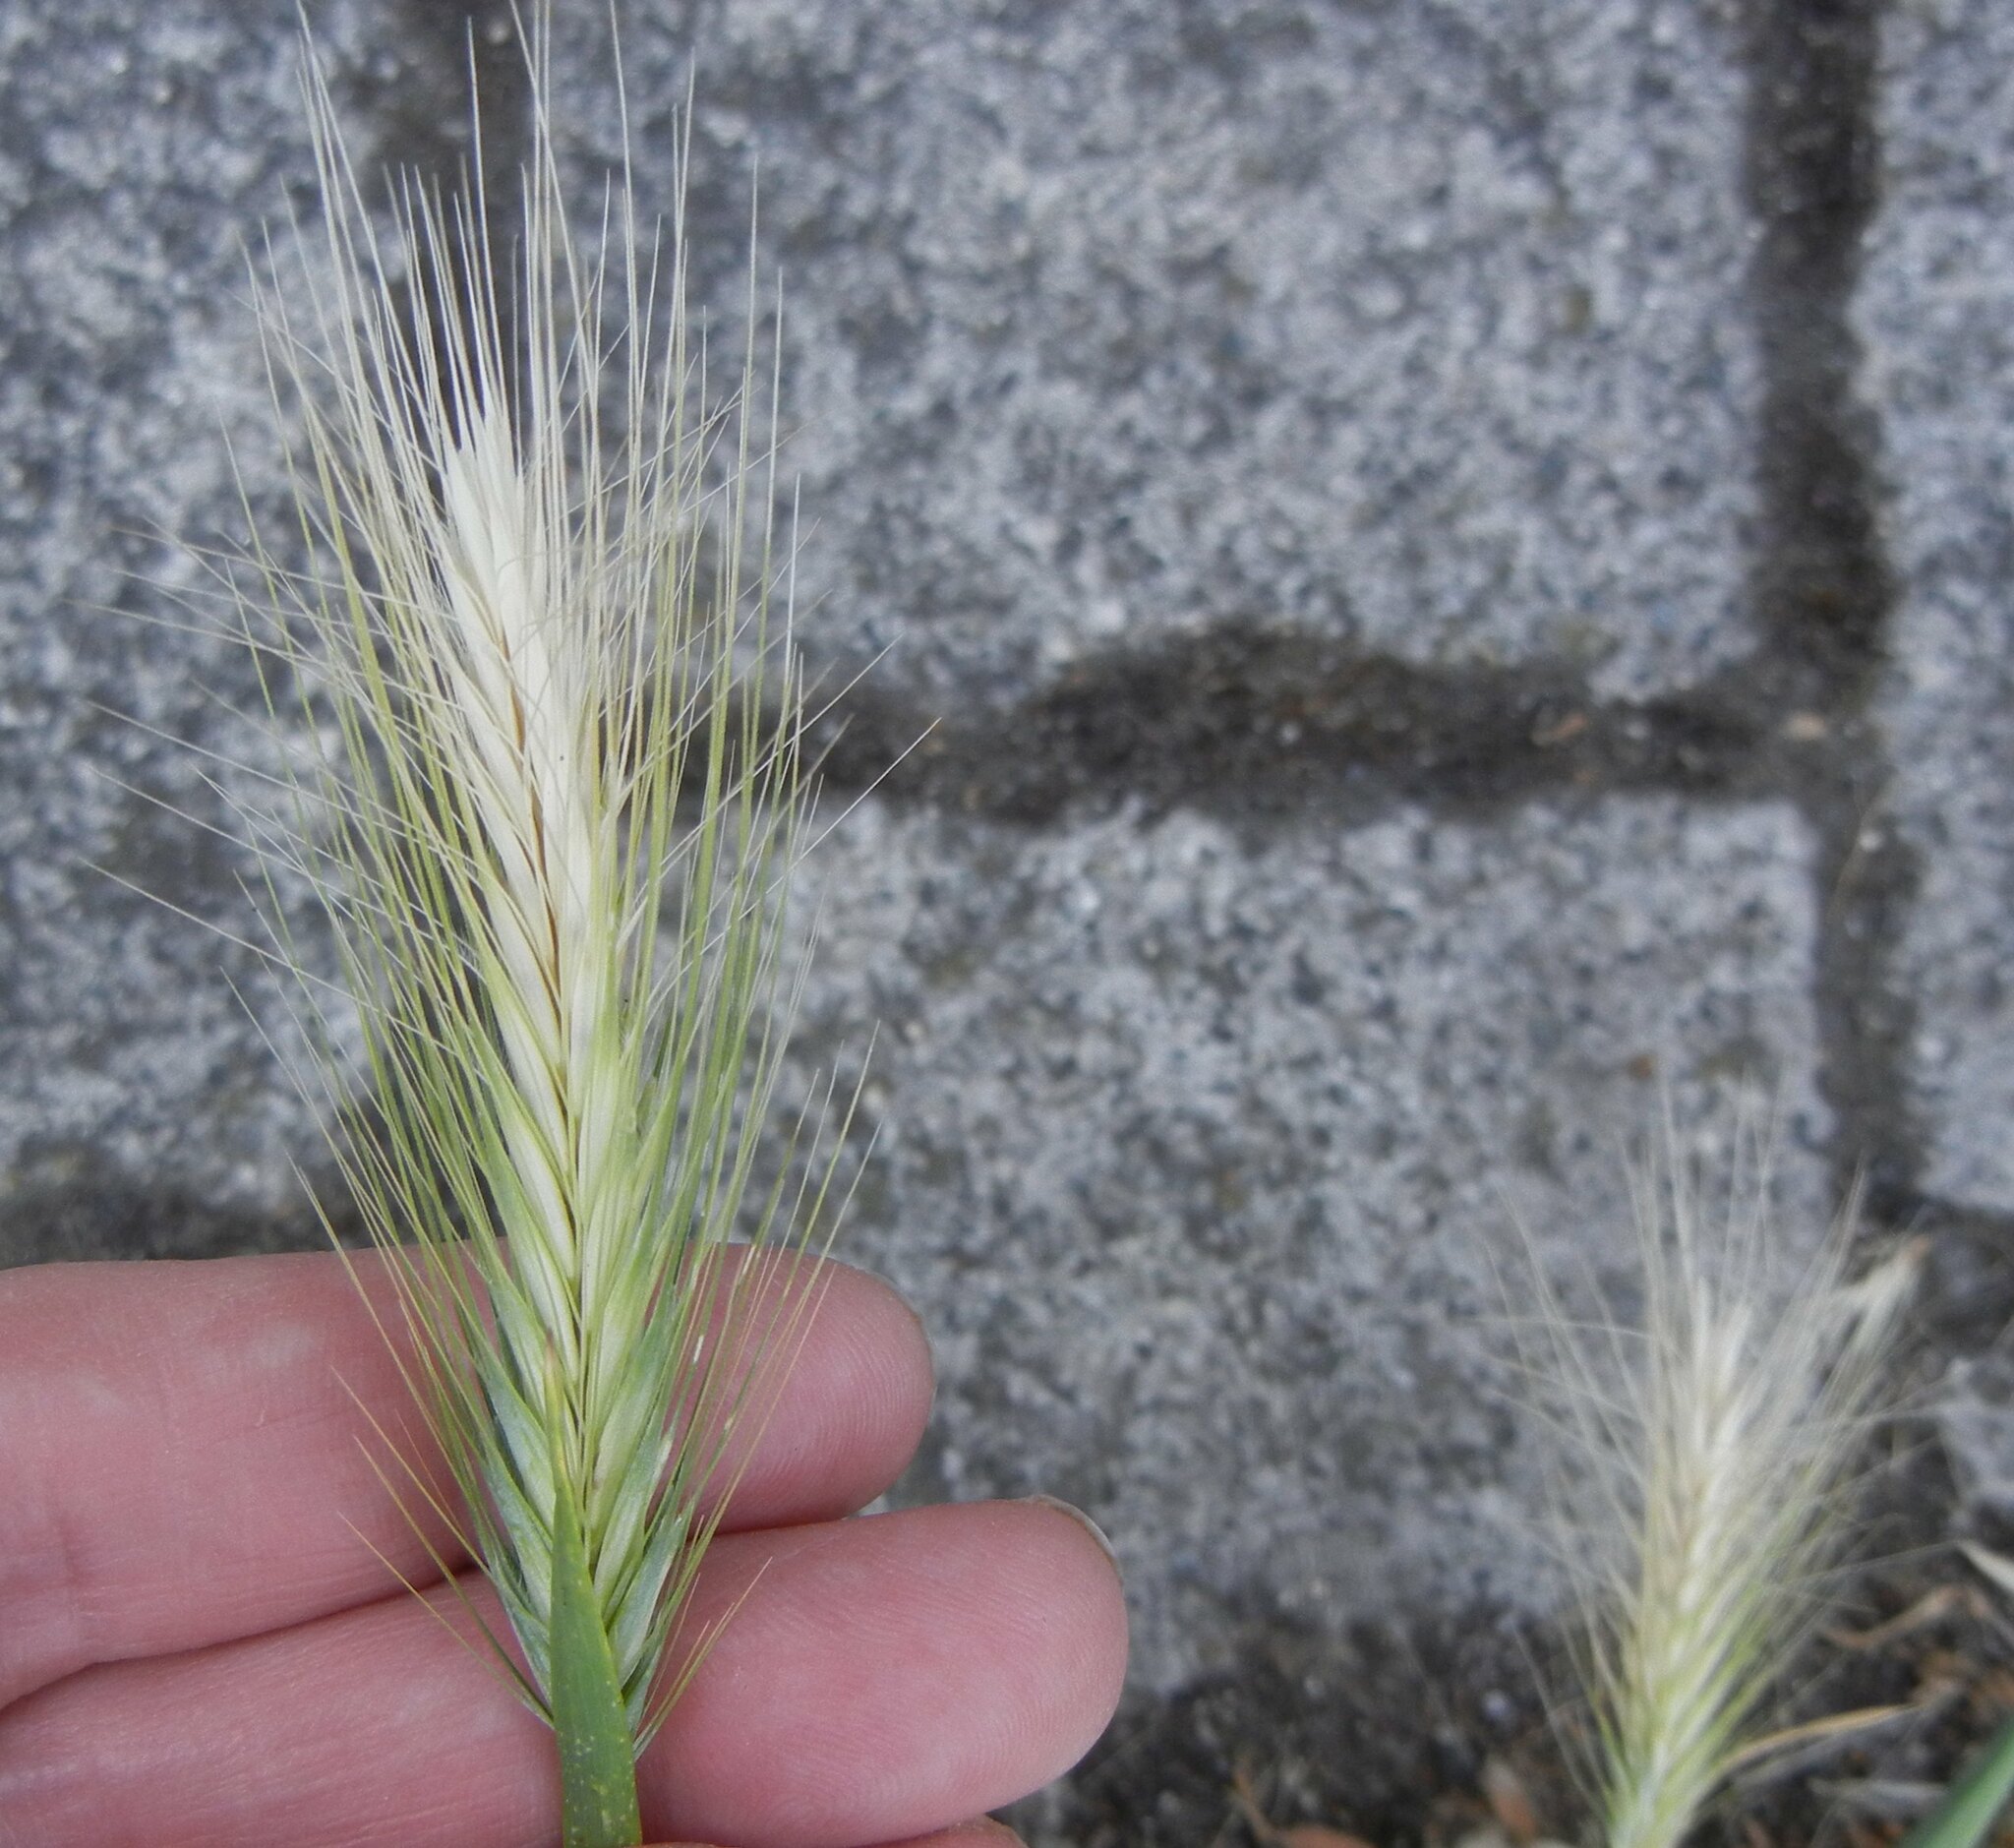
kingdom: Plantae
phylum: Tracheophyta
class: Liliopsida
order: Poales
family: Poaceae
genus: Hordeum
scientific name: Hordeum murinum
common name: Wall barley
